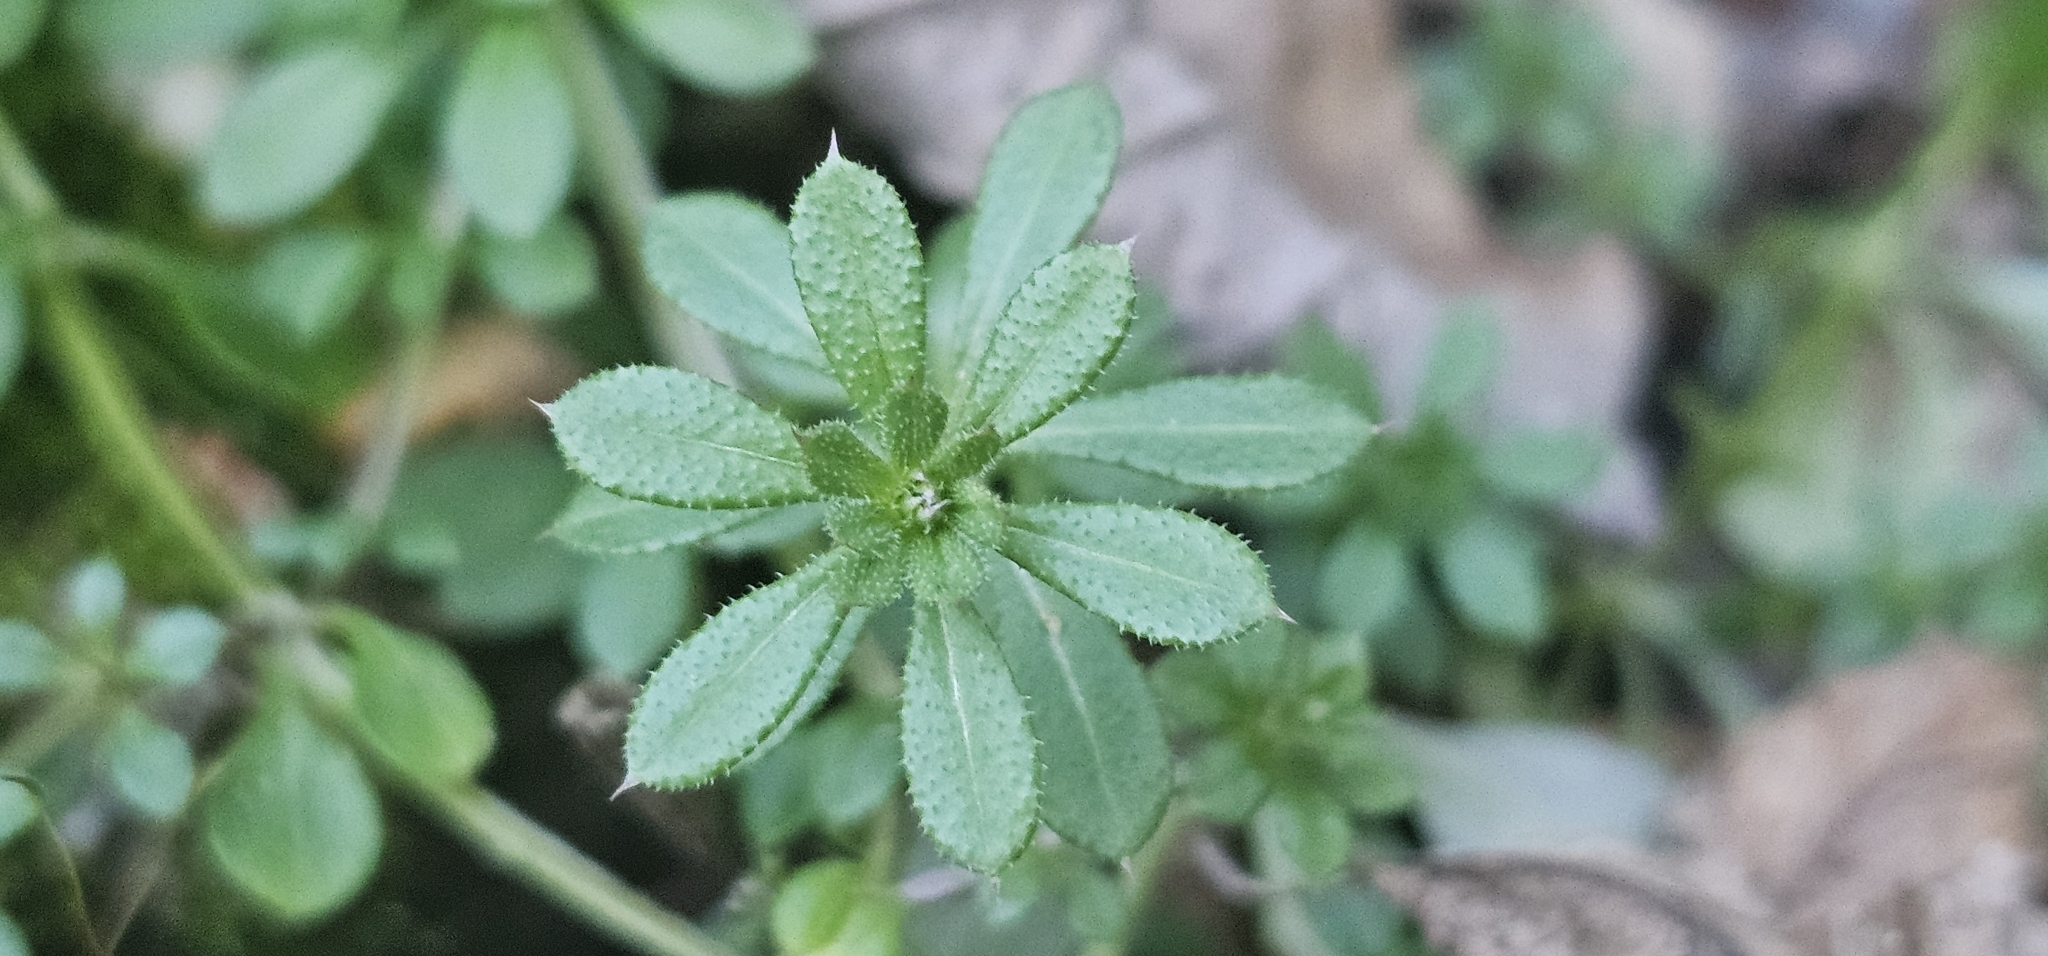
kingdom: Plantae
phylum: Tracheophyta
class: Magnoliopsida
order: Gentianales
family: Rubiaceae
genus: Galium
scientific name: Galium aparine
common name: Cleavers
